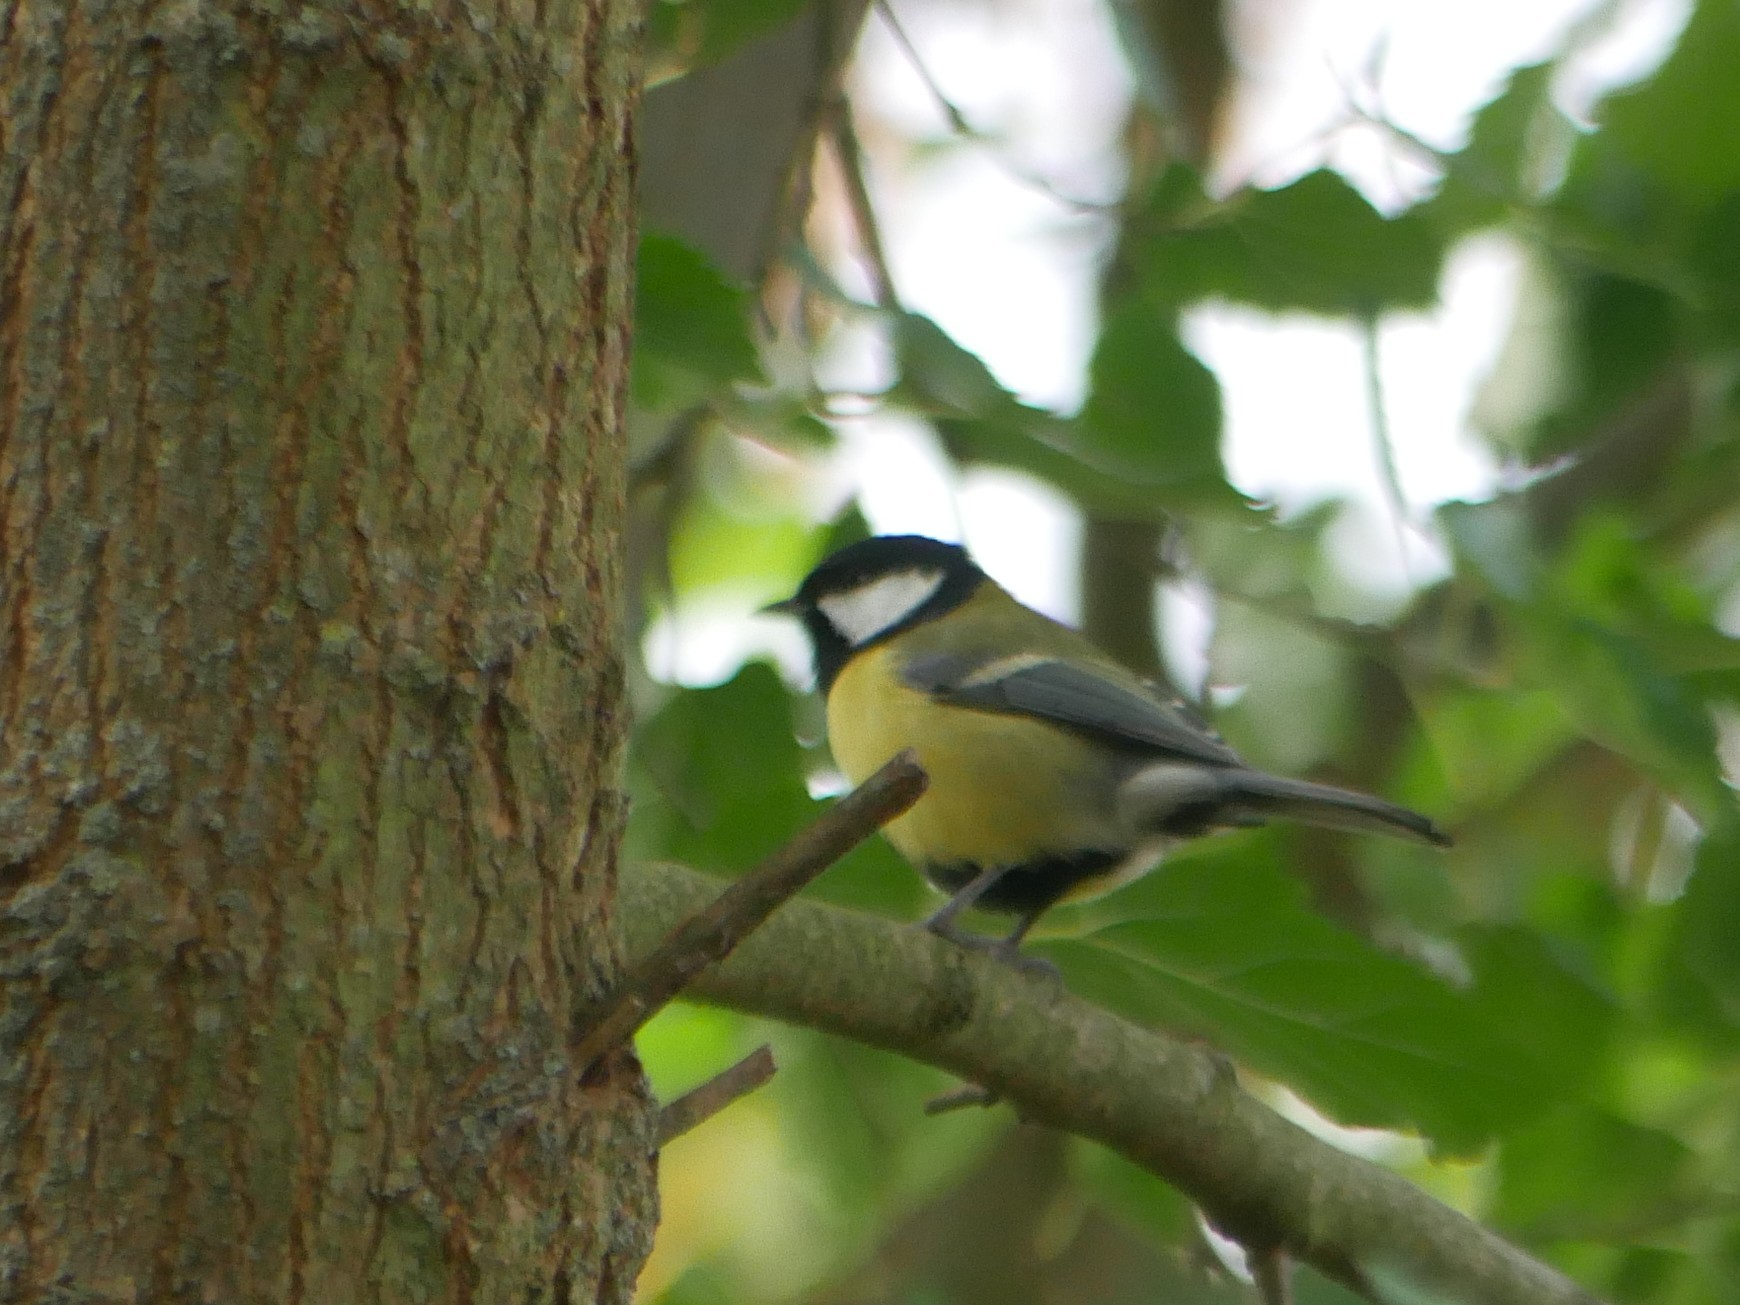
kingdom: Animalia
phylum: Chordata
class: Aves
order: Passeriformes
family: Paridae
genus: Parus
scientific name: Parus major
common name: Great tit
